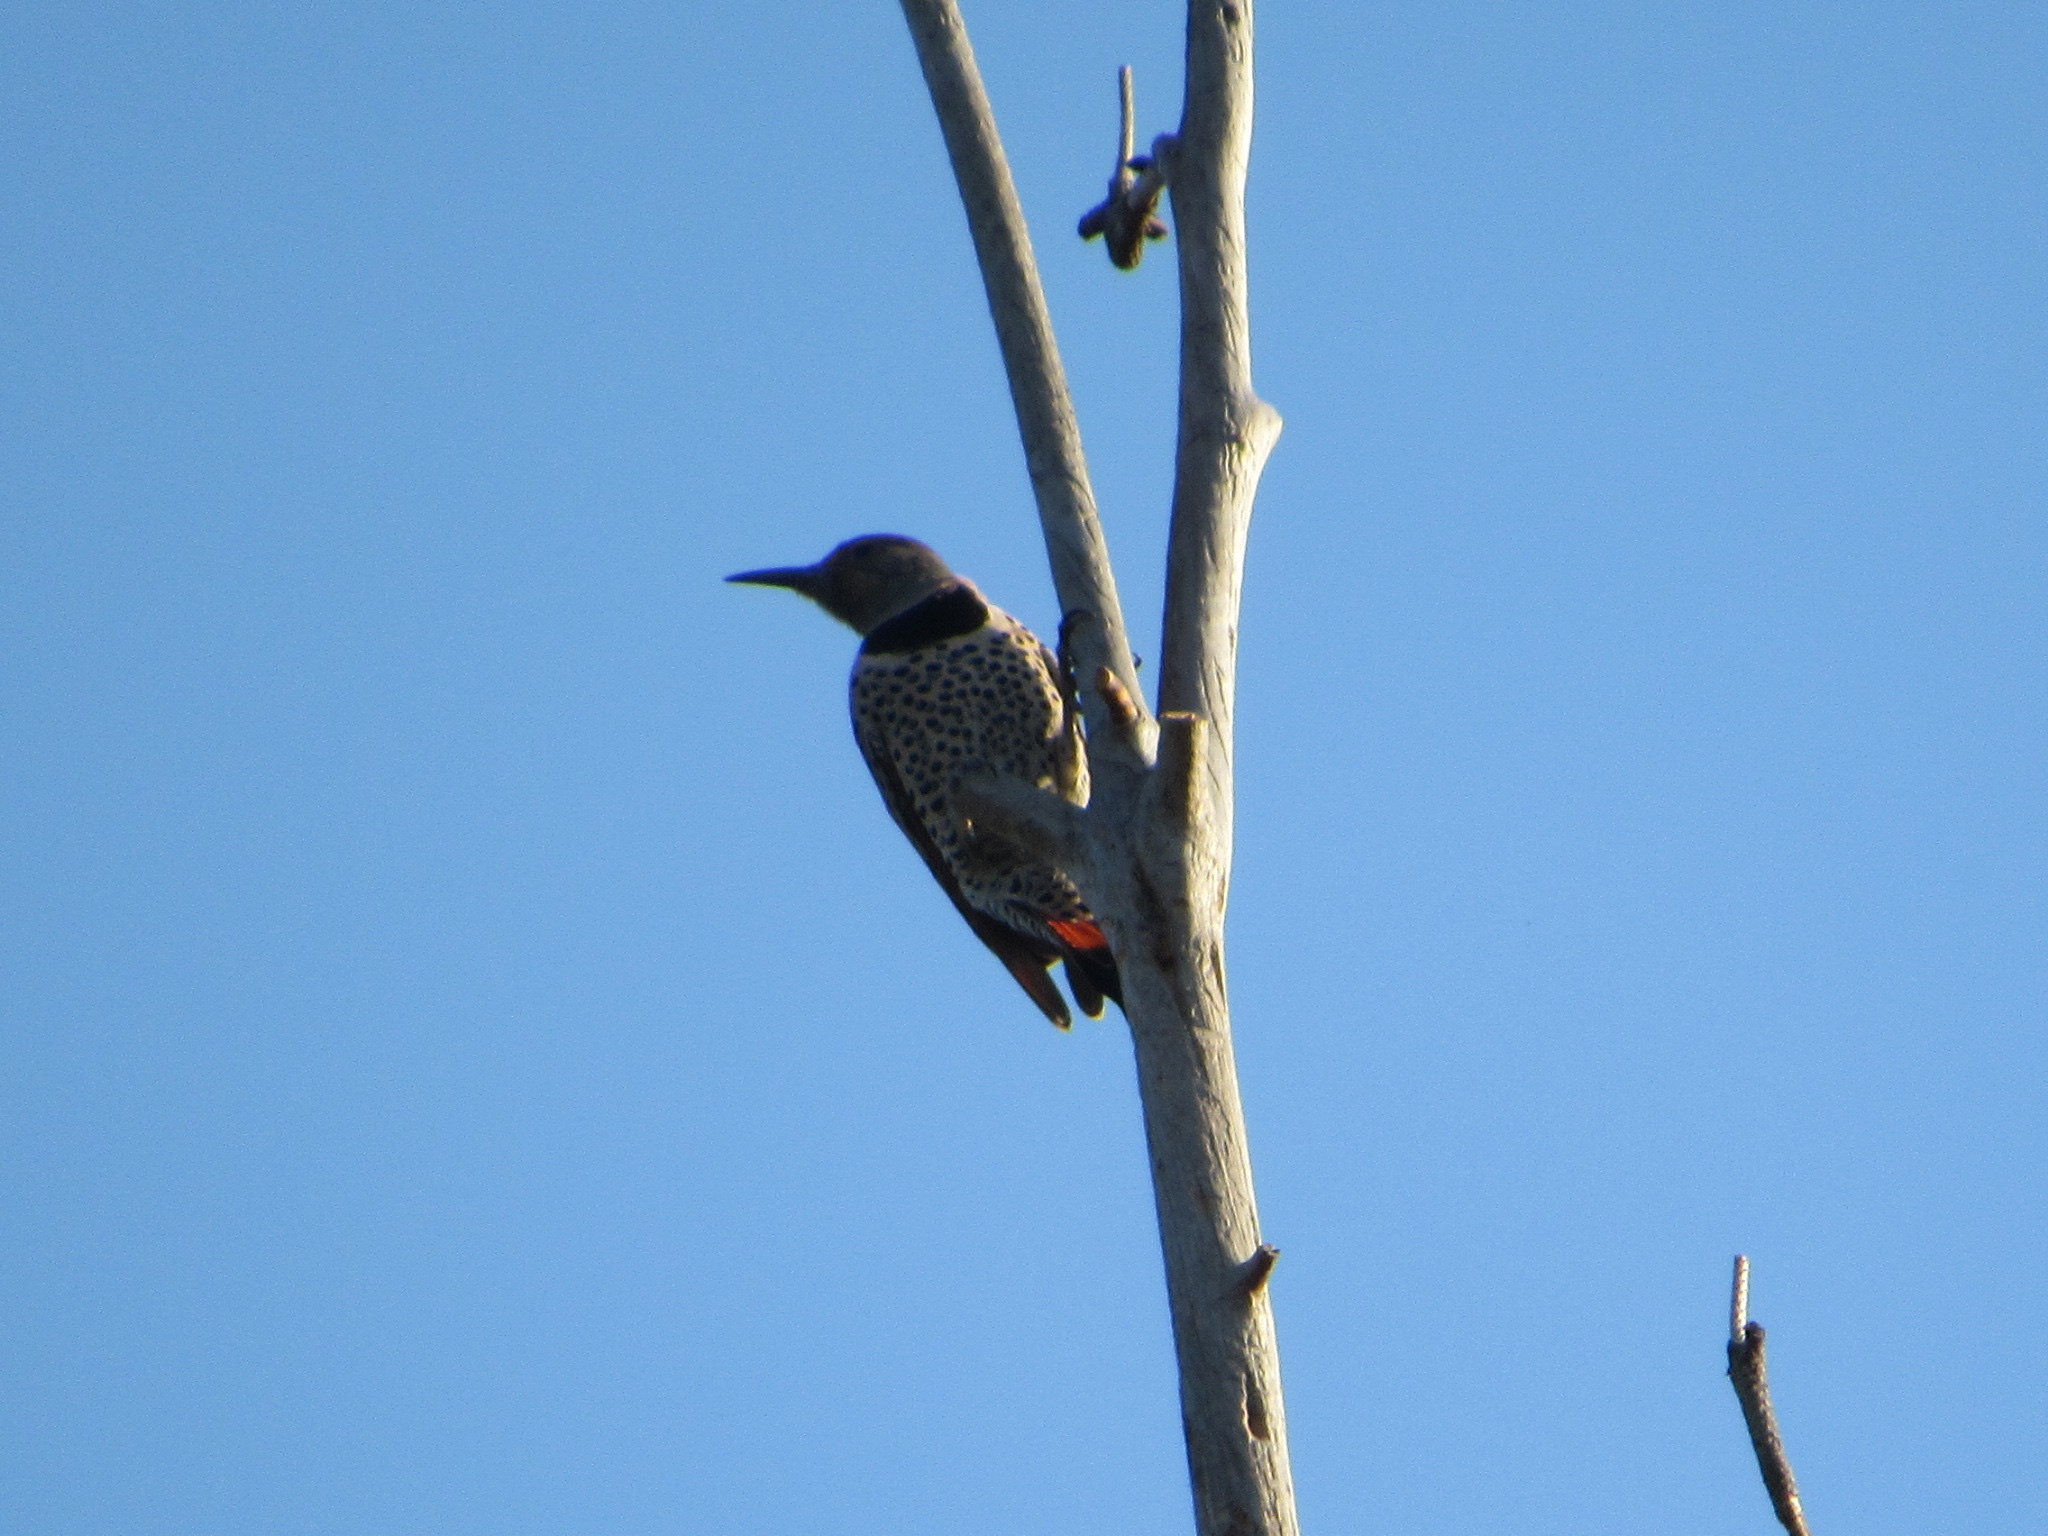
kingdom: Animalia
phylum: Chordata
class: Aves
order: Piciformes
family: Picidae
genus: Colaptes
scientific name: Colaptes auratus
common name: Northern flicker
